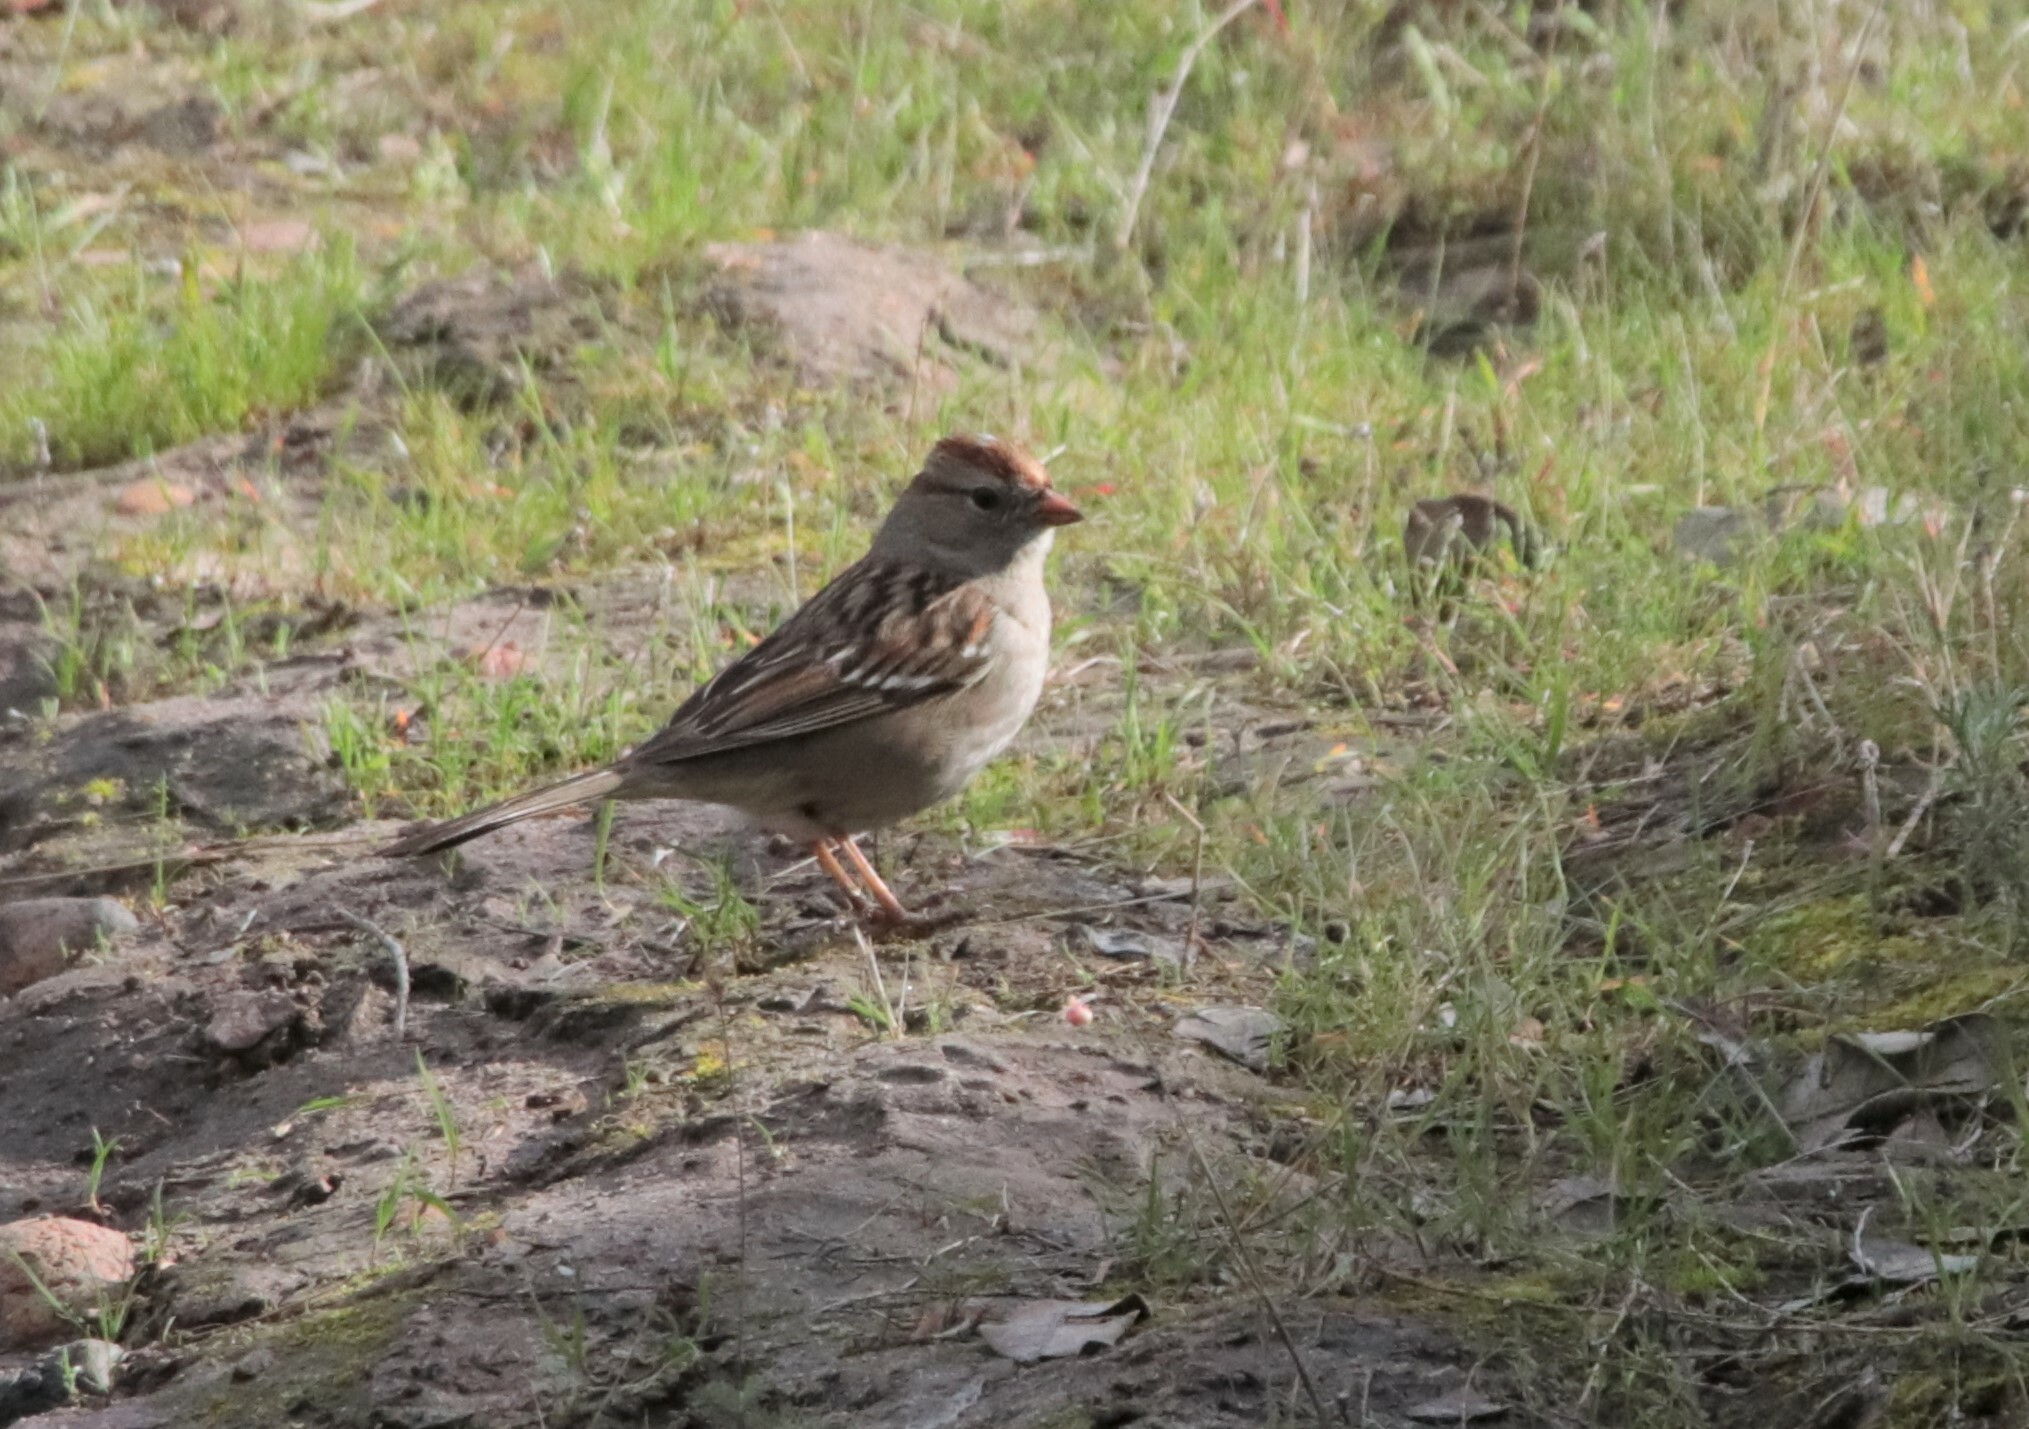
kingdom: Animalia
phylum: Chordata
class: Aves
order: Passeriformes
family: Passerellidae
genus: Zonotrichia
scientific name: Zonotrichia leucophrys
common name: White-crowned sparrow
